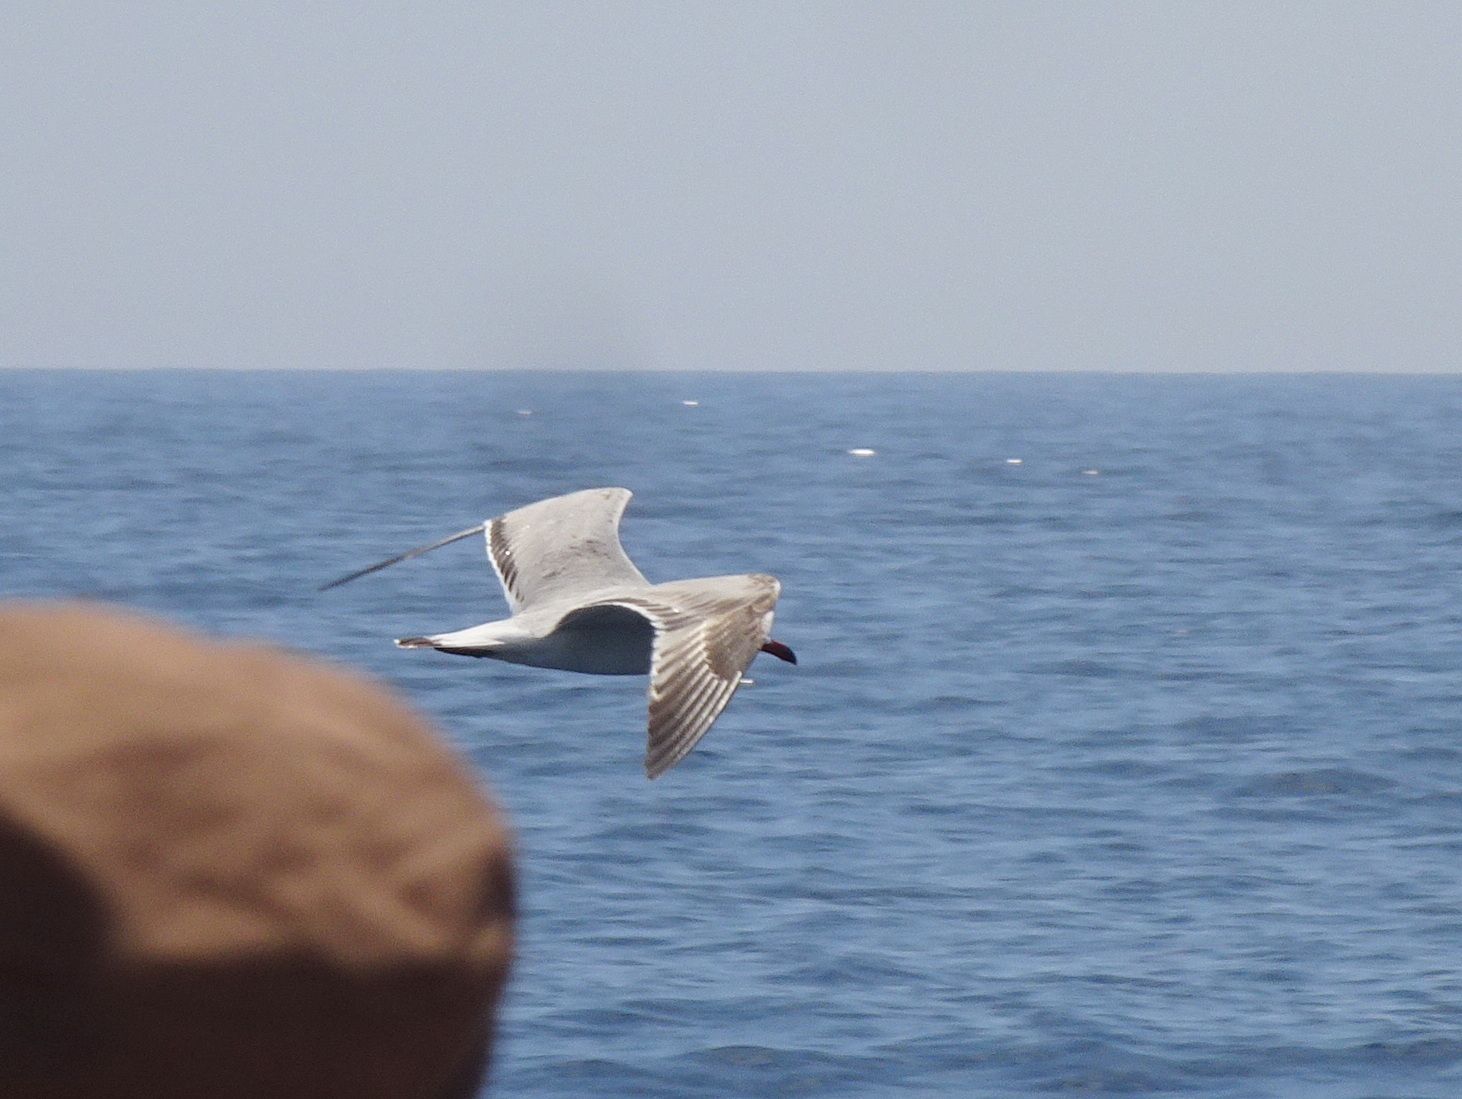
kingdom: Animalia
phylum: Chordata
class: Aves
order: Charadriiformes
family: Laridae
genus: Ichthyaetus
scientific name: Ichthyaetus audouinii
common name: Audouin's gull
